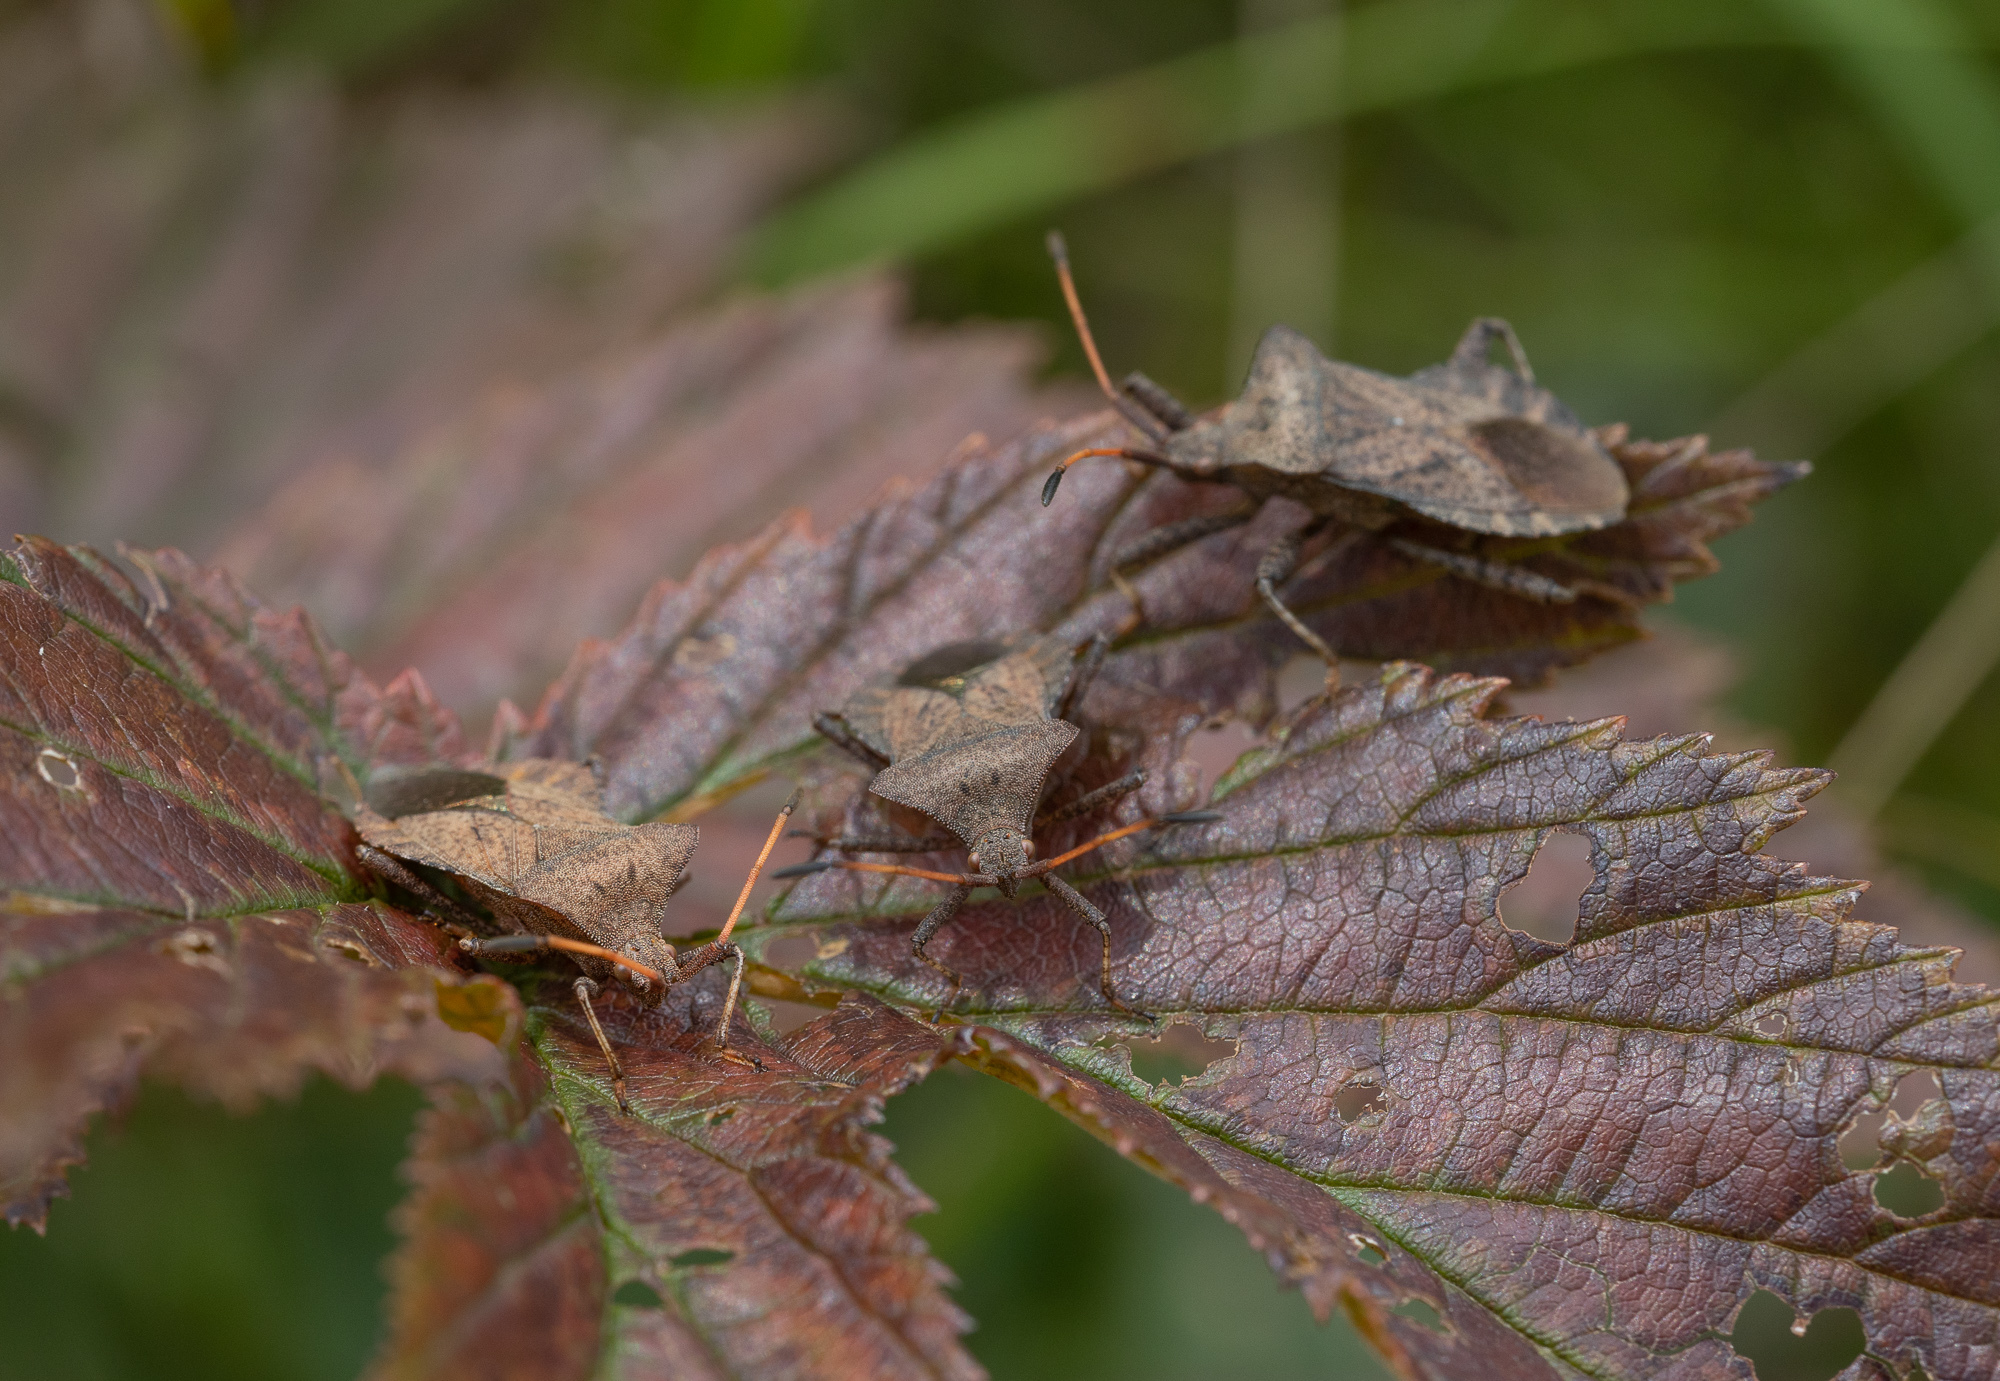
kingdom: Animalia
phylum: Arthropoda
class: Insecta
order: Hemiptera
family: Coreidae
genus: Coreus
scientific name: Coreus marginatus
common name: Dock bug
